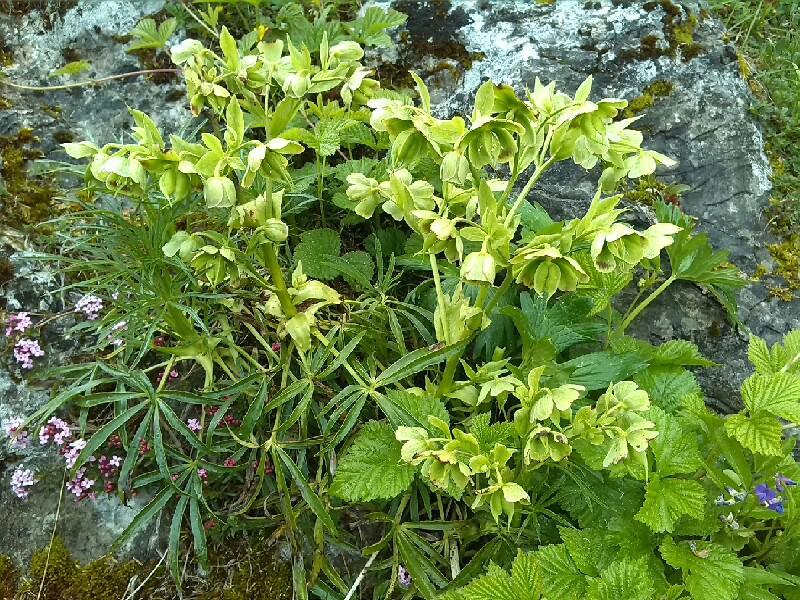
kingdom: Plantae
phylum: Tracheophyta
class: Magnoliopsida
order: Ranunculales
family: Ranunculaceae
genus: Helleborus
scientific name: Helleborus foetidus
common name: Stinking hellebore
